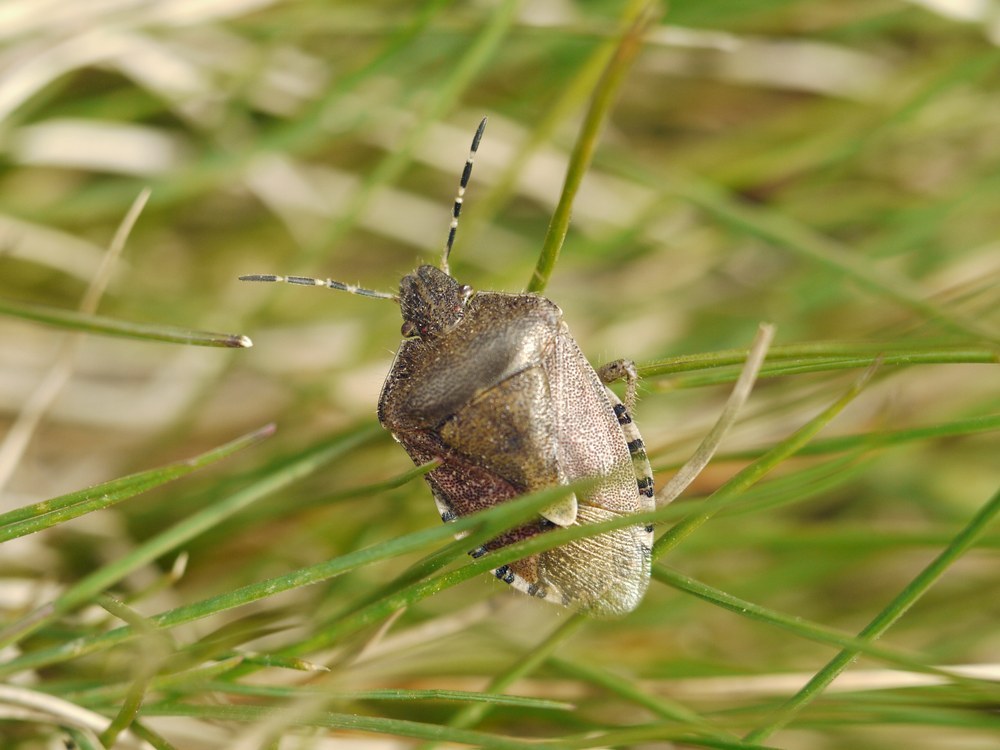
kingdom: Animalia
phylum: Arthropoda
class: Insecta
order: Hemiptera
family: Pentatomidae
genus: Dolycoris
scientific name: Dolycoris baccarum
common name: Sloe bug
